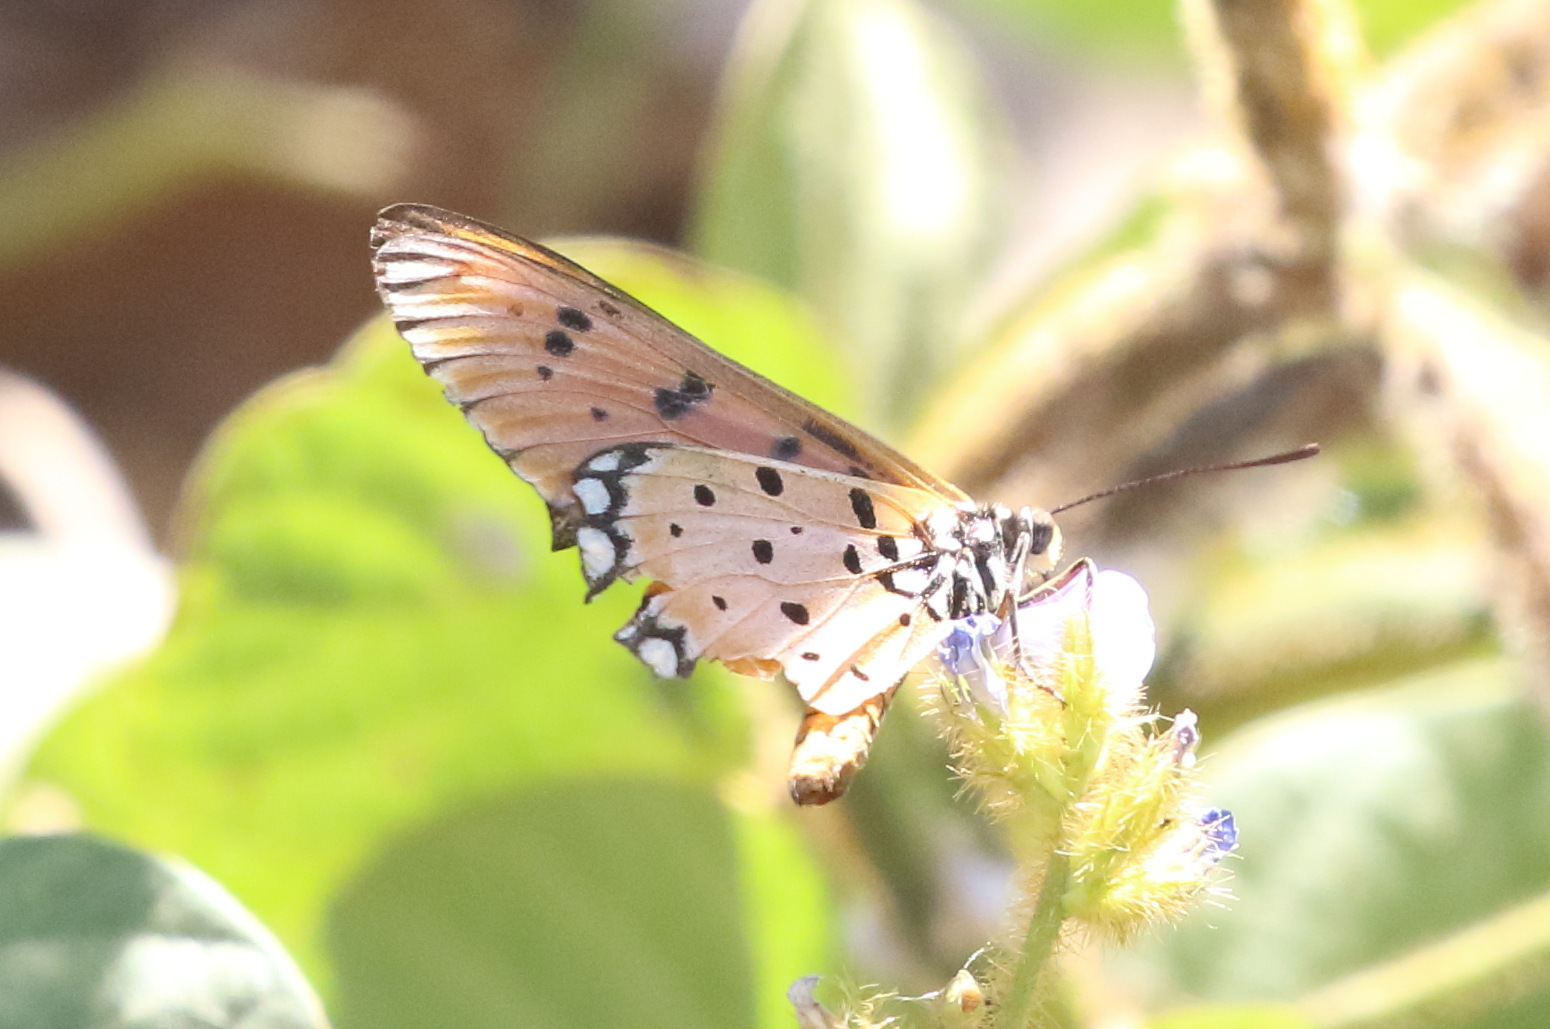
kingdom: Animalia
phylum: Arthropoda
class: Insecta
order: Lepidoptera
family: Nymphalidae
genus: Acraea
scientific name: Acraea terpsicore
